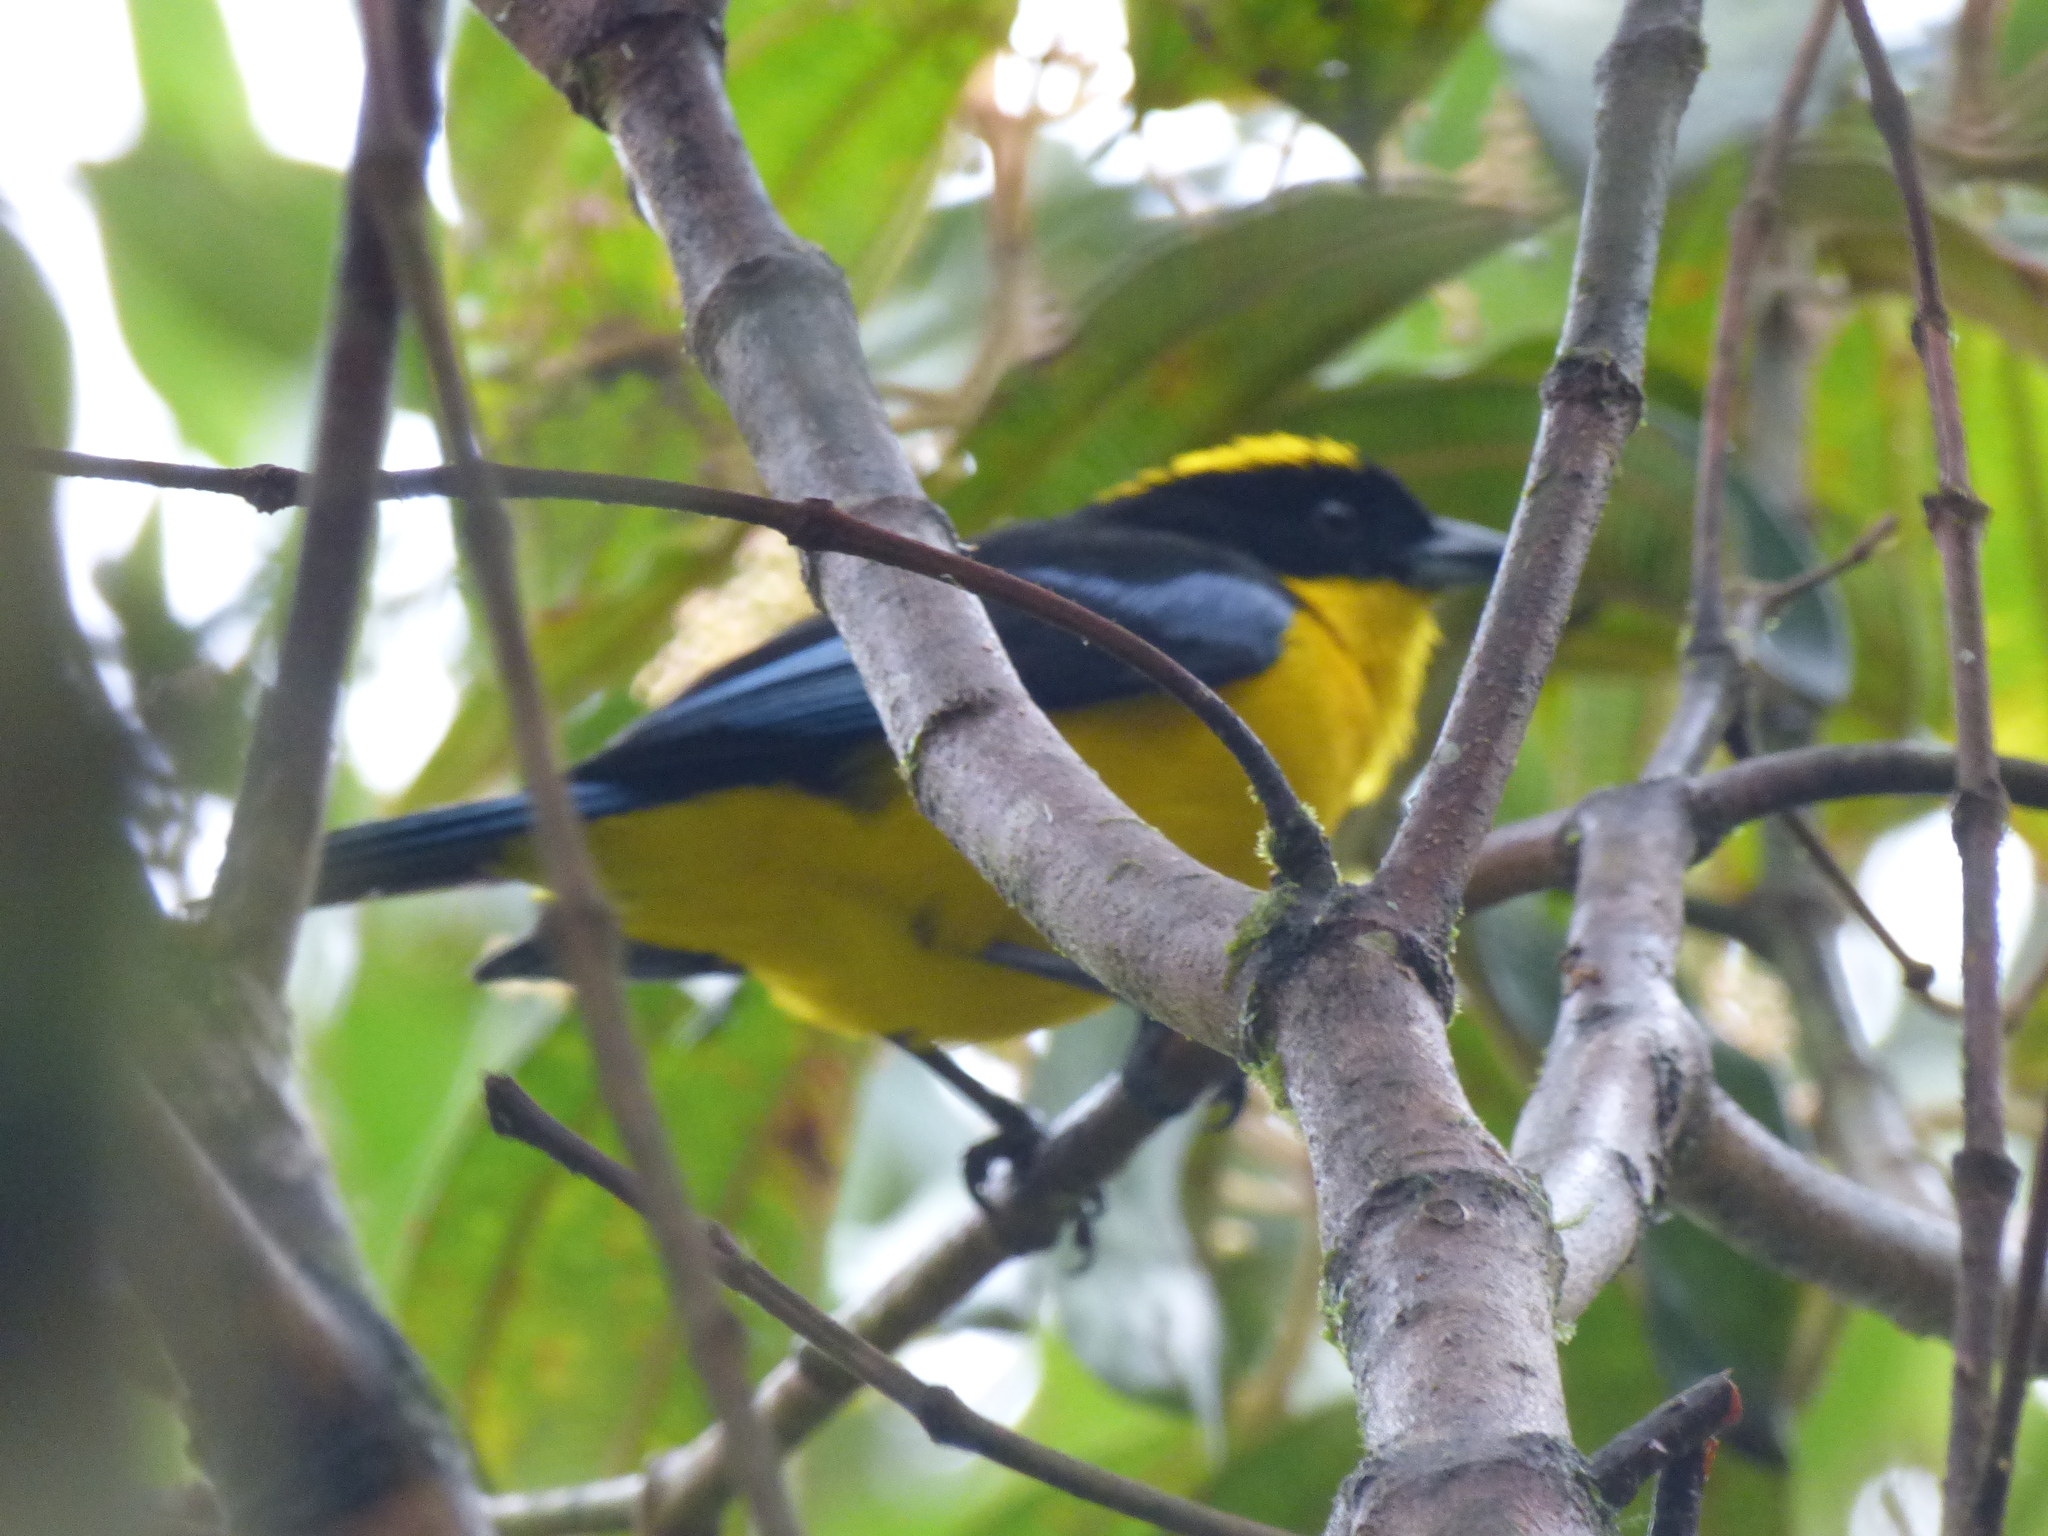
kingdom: Animalia
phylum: Chordata
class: Aves
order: Passeriformes
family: Thraupidae
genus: Anisognathus
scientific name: Anisognathus somptuosus
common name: Blue-winged mountain-tanager
